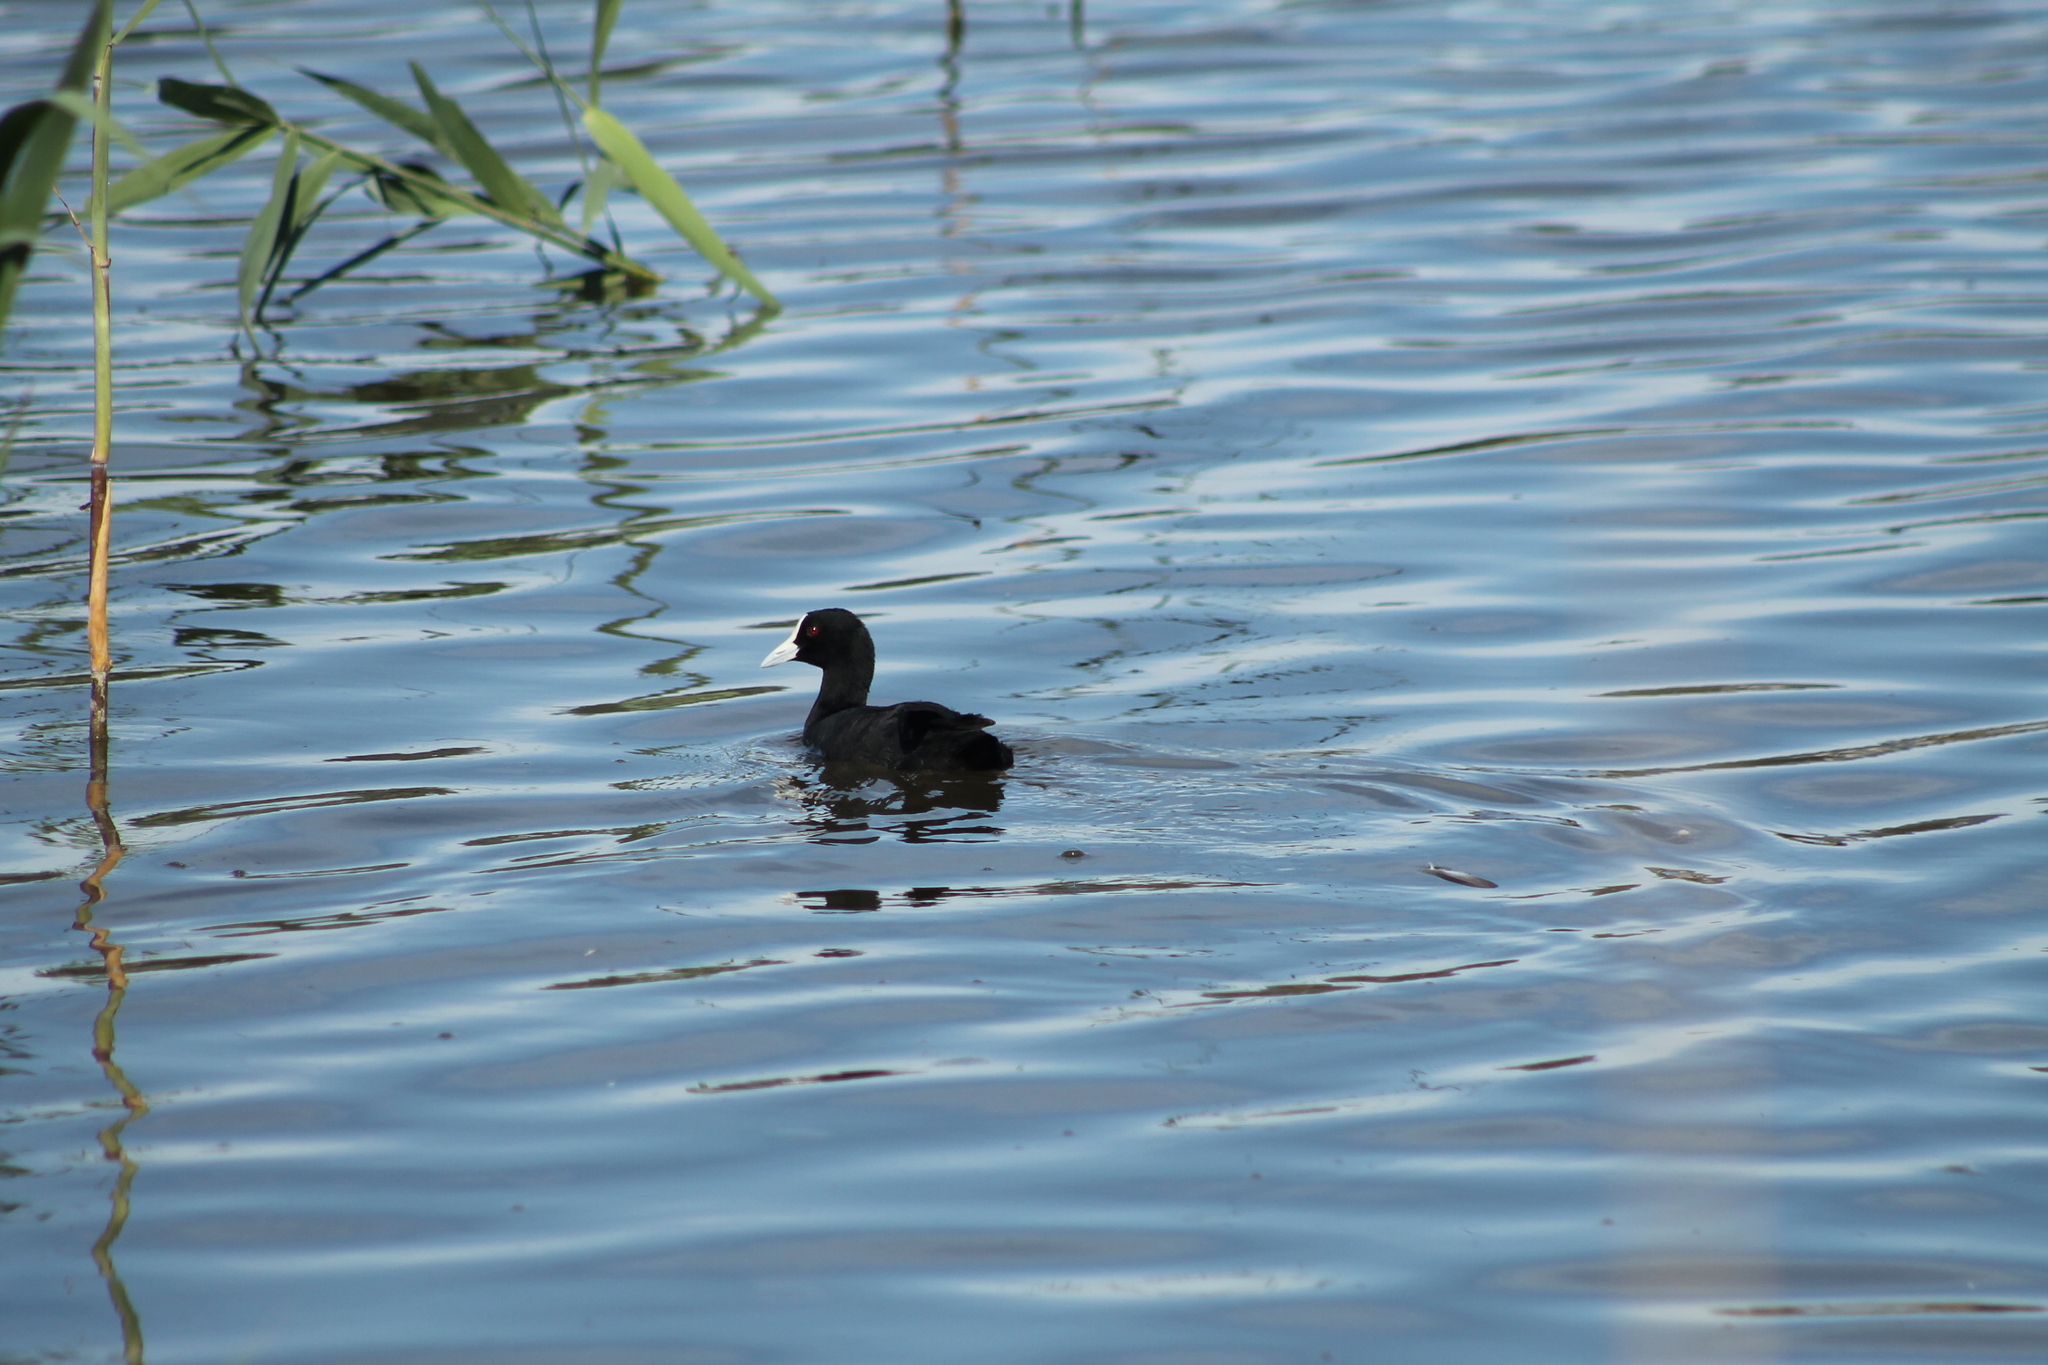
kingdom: Animalia
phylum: Chordata
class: Aves
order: Gruiformes
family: Rallidae
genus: Fulica
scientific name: Fulica atra
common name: Eurasian coot
